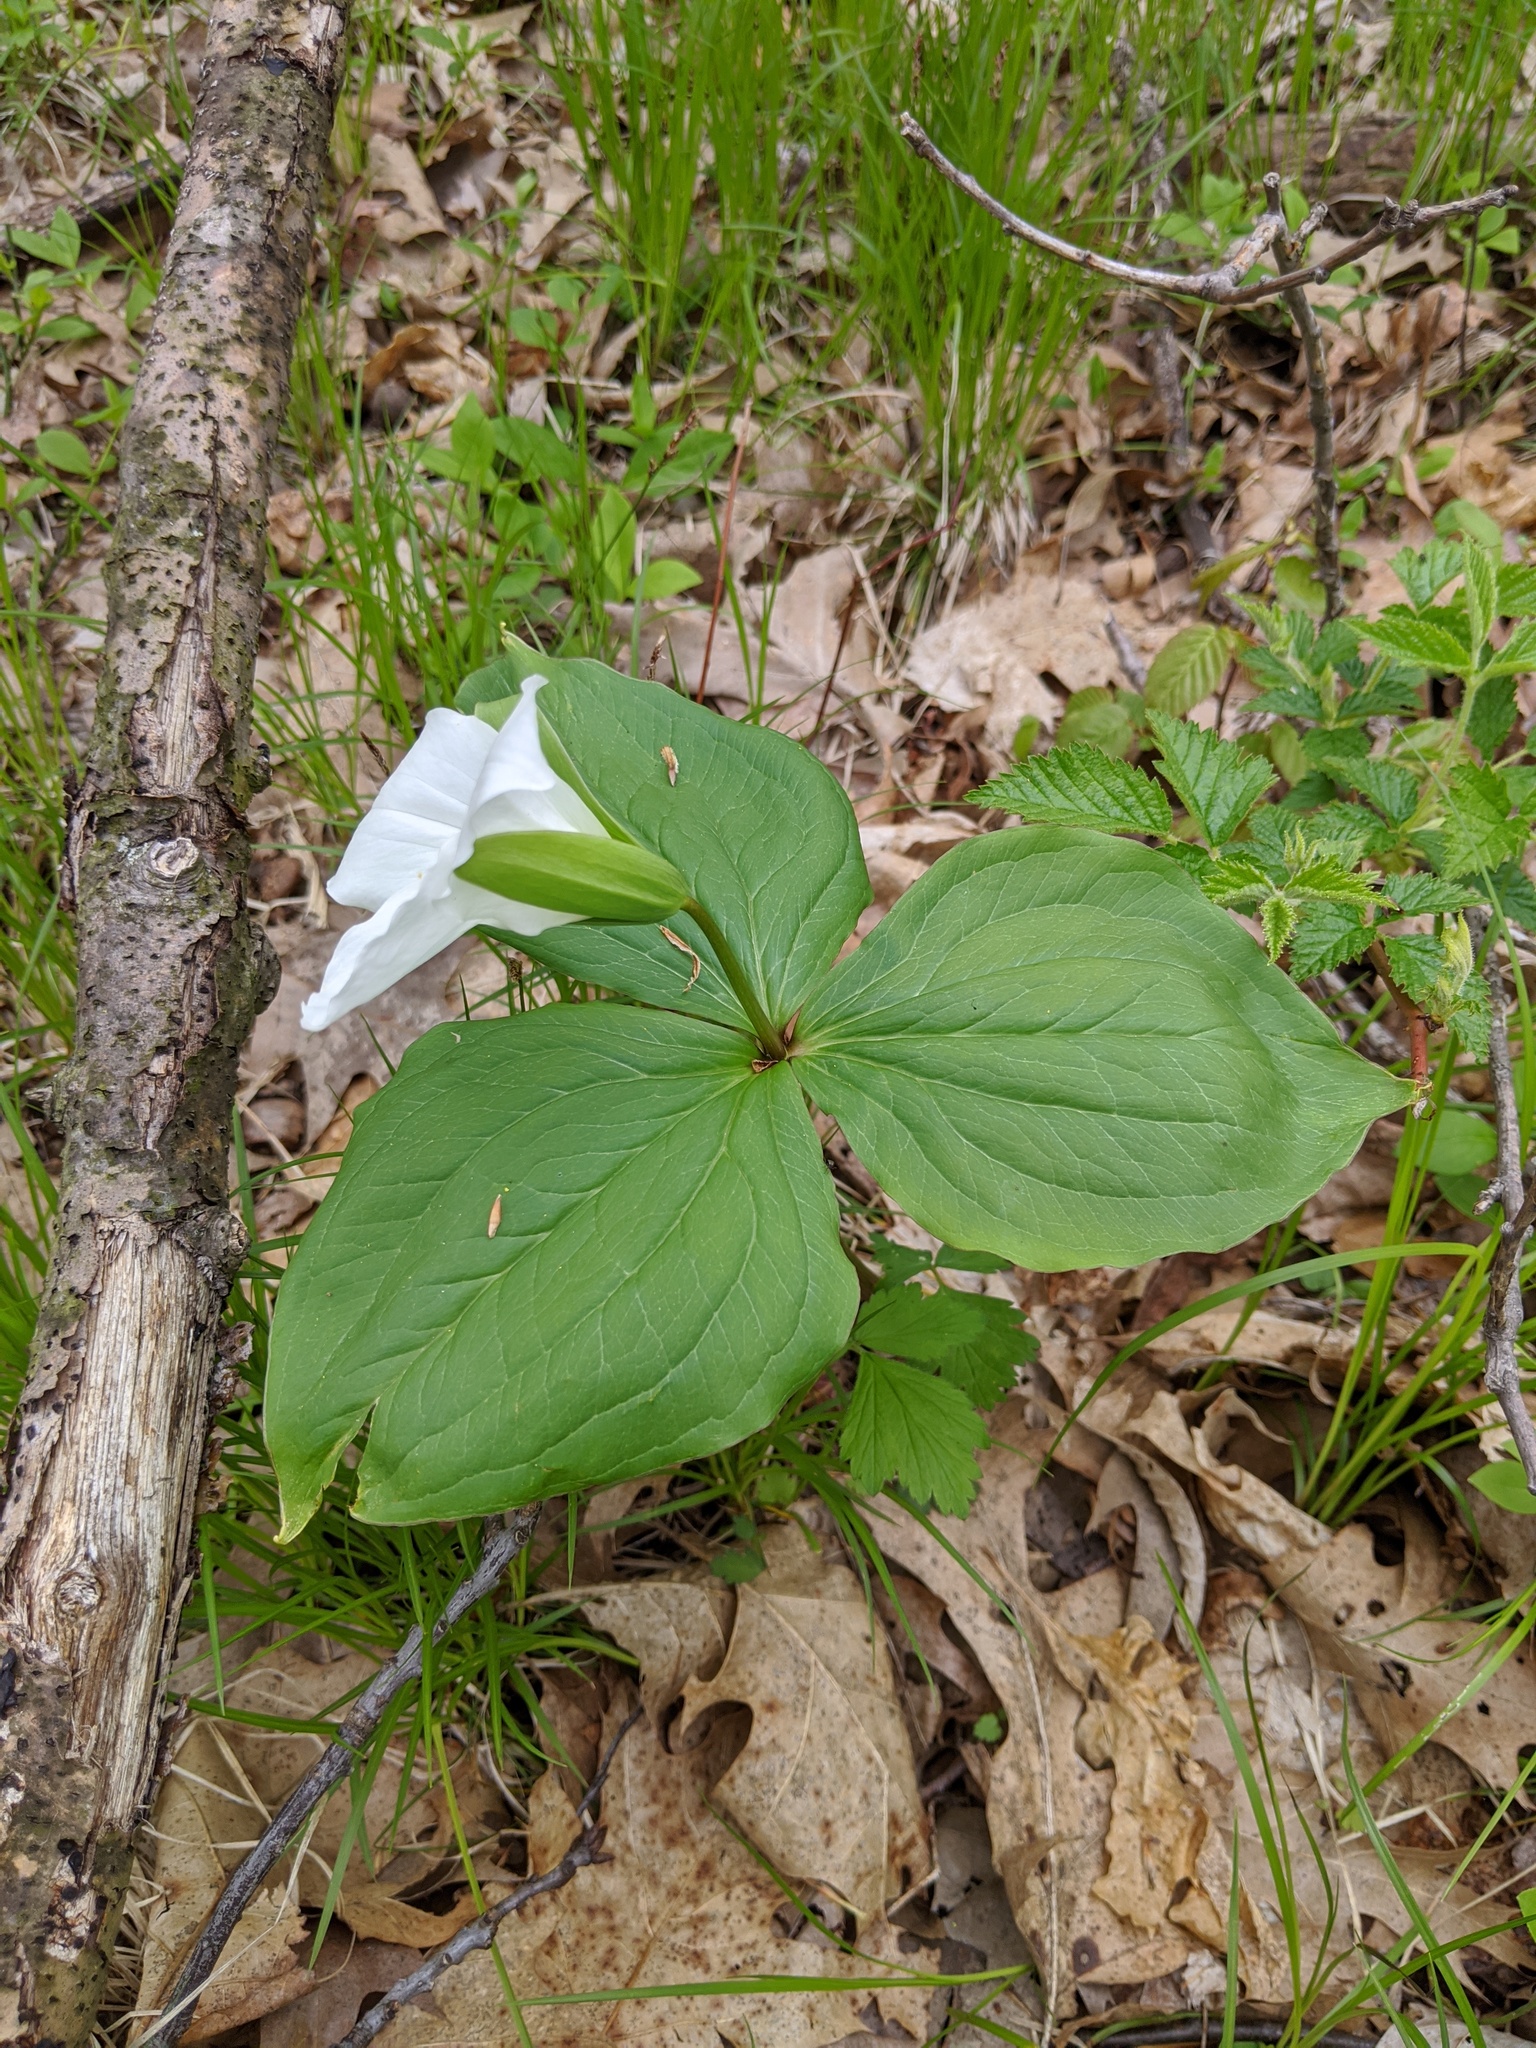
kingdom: Plantae
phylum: Tracheophyta
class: Liliopsida
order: Liliales
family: Melanthiaceae
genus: Trillium
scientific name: Trillium grandiflorum
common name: Great white trillium
